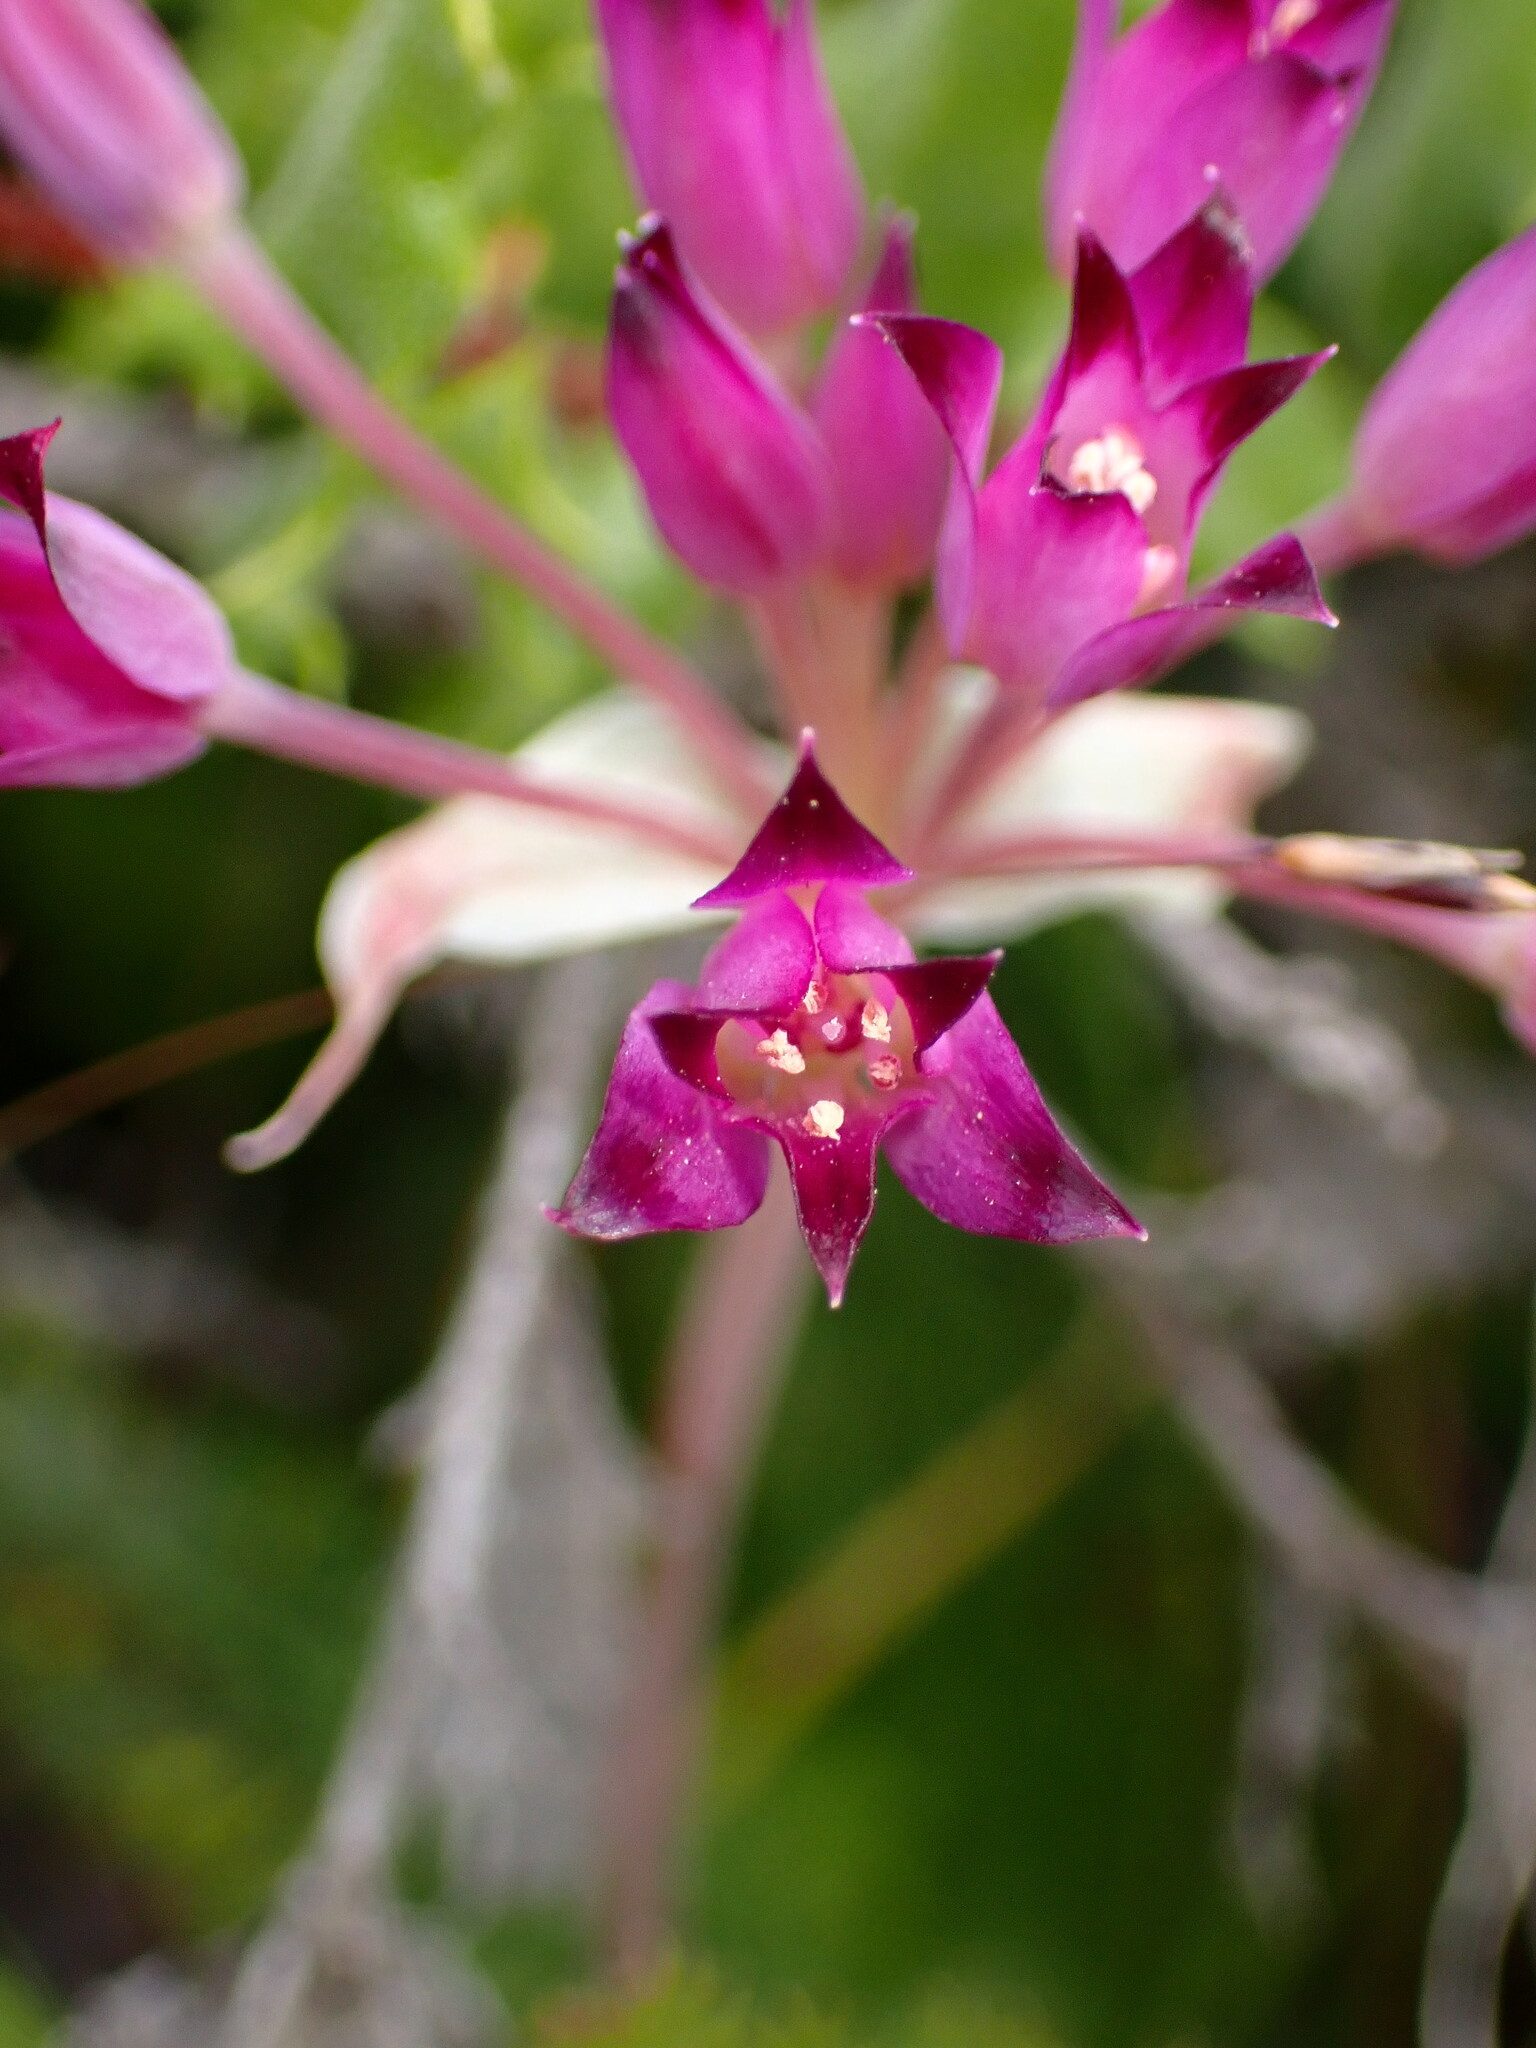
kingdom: Plantae
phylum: Tracheophyta
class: Liliopsida
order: Asparagales
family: Amaryllidaceae
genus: Allium
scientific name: Allium peninsulare
